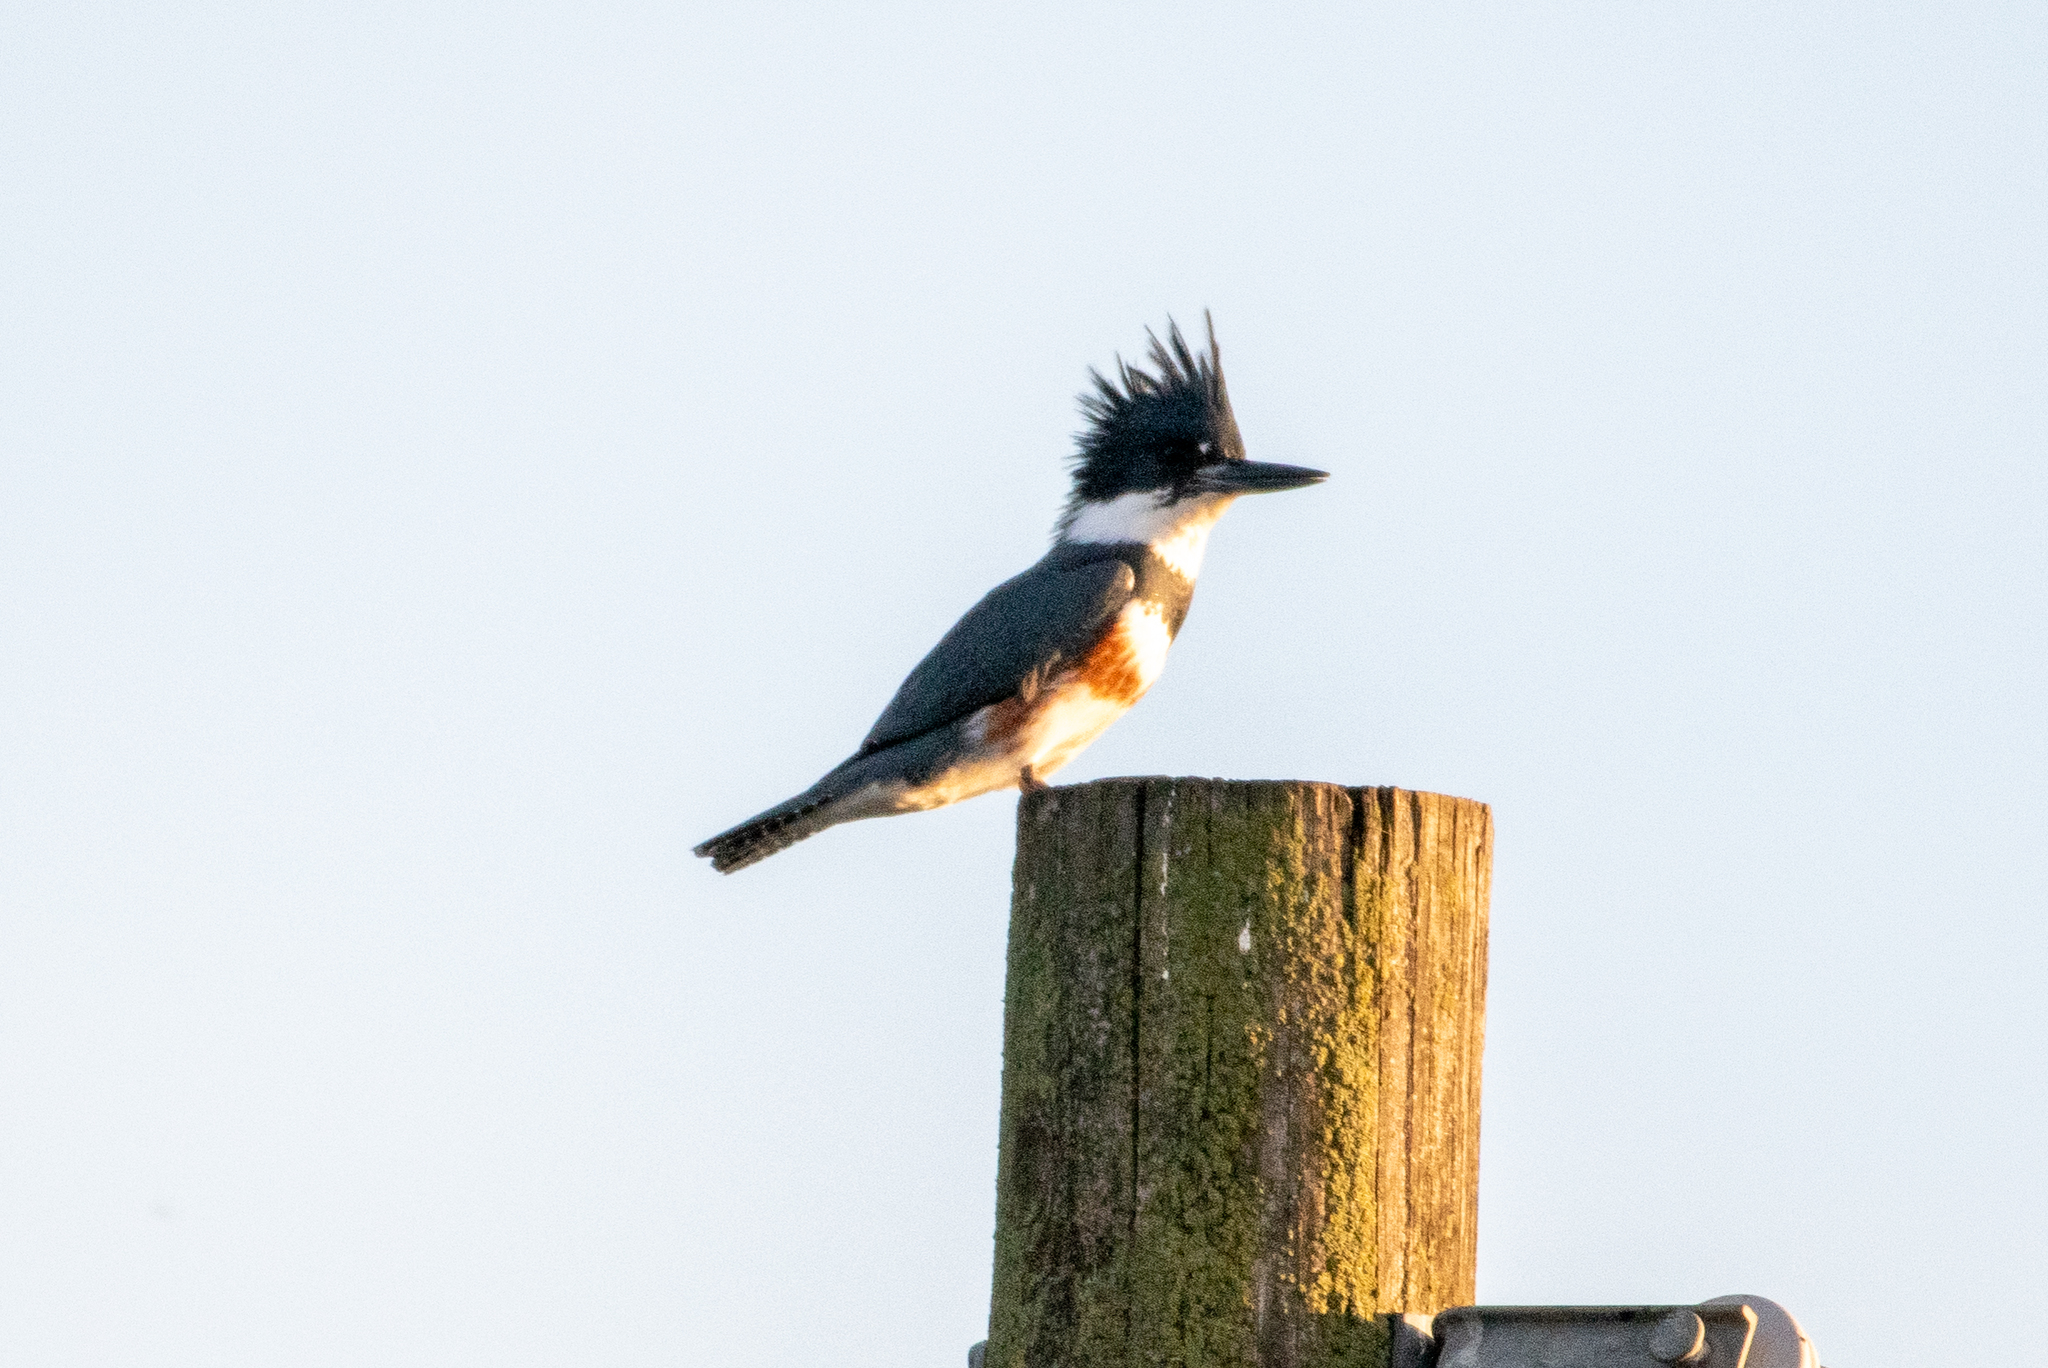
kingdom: Animalia
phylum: Chordata
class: Aves
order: Coraciiformes
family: Alcedinidae
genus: Megaceryle
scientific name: Megaceryle alcyon
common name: Belted kingfisher
